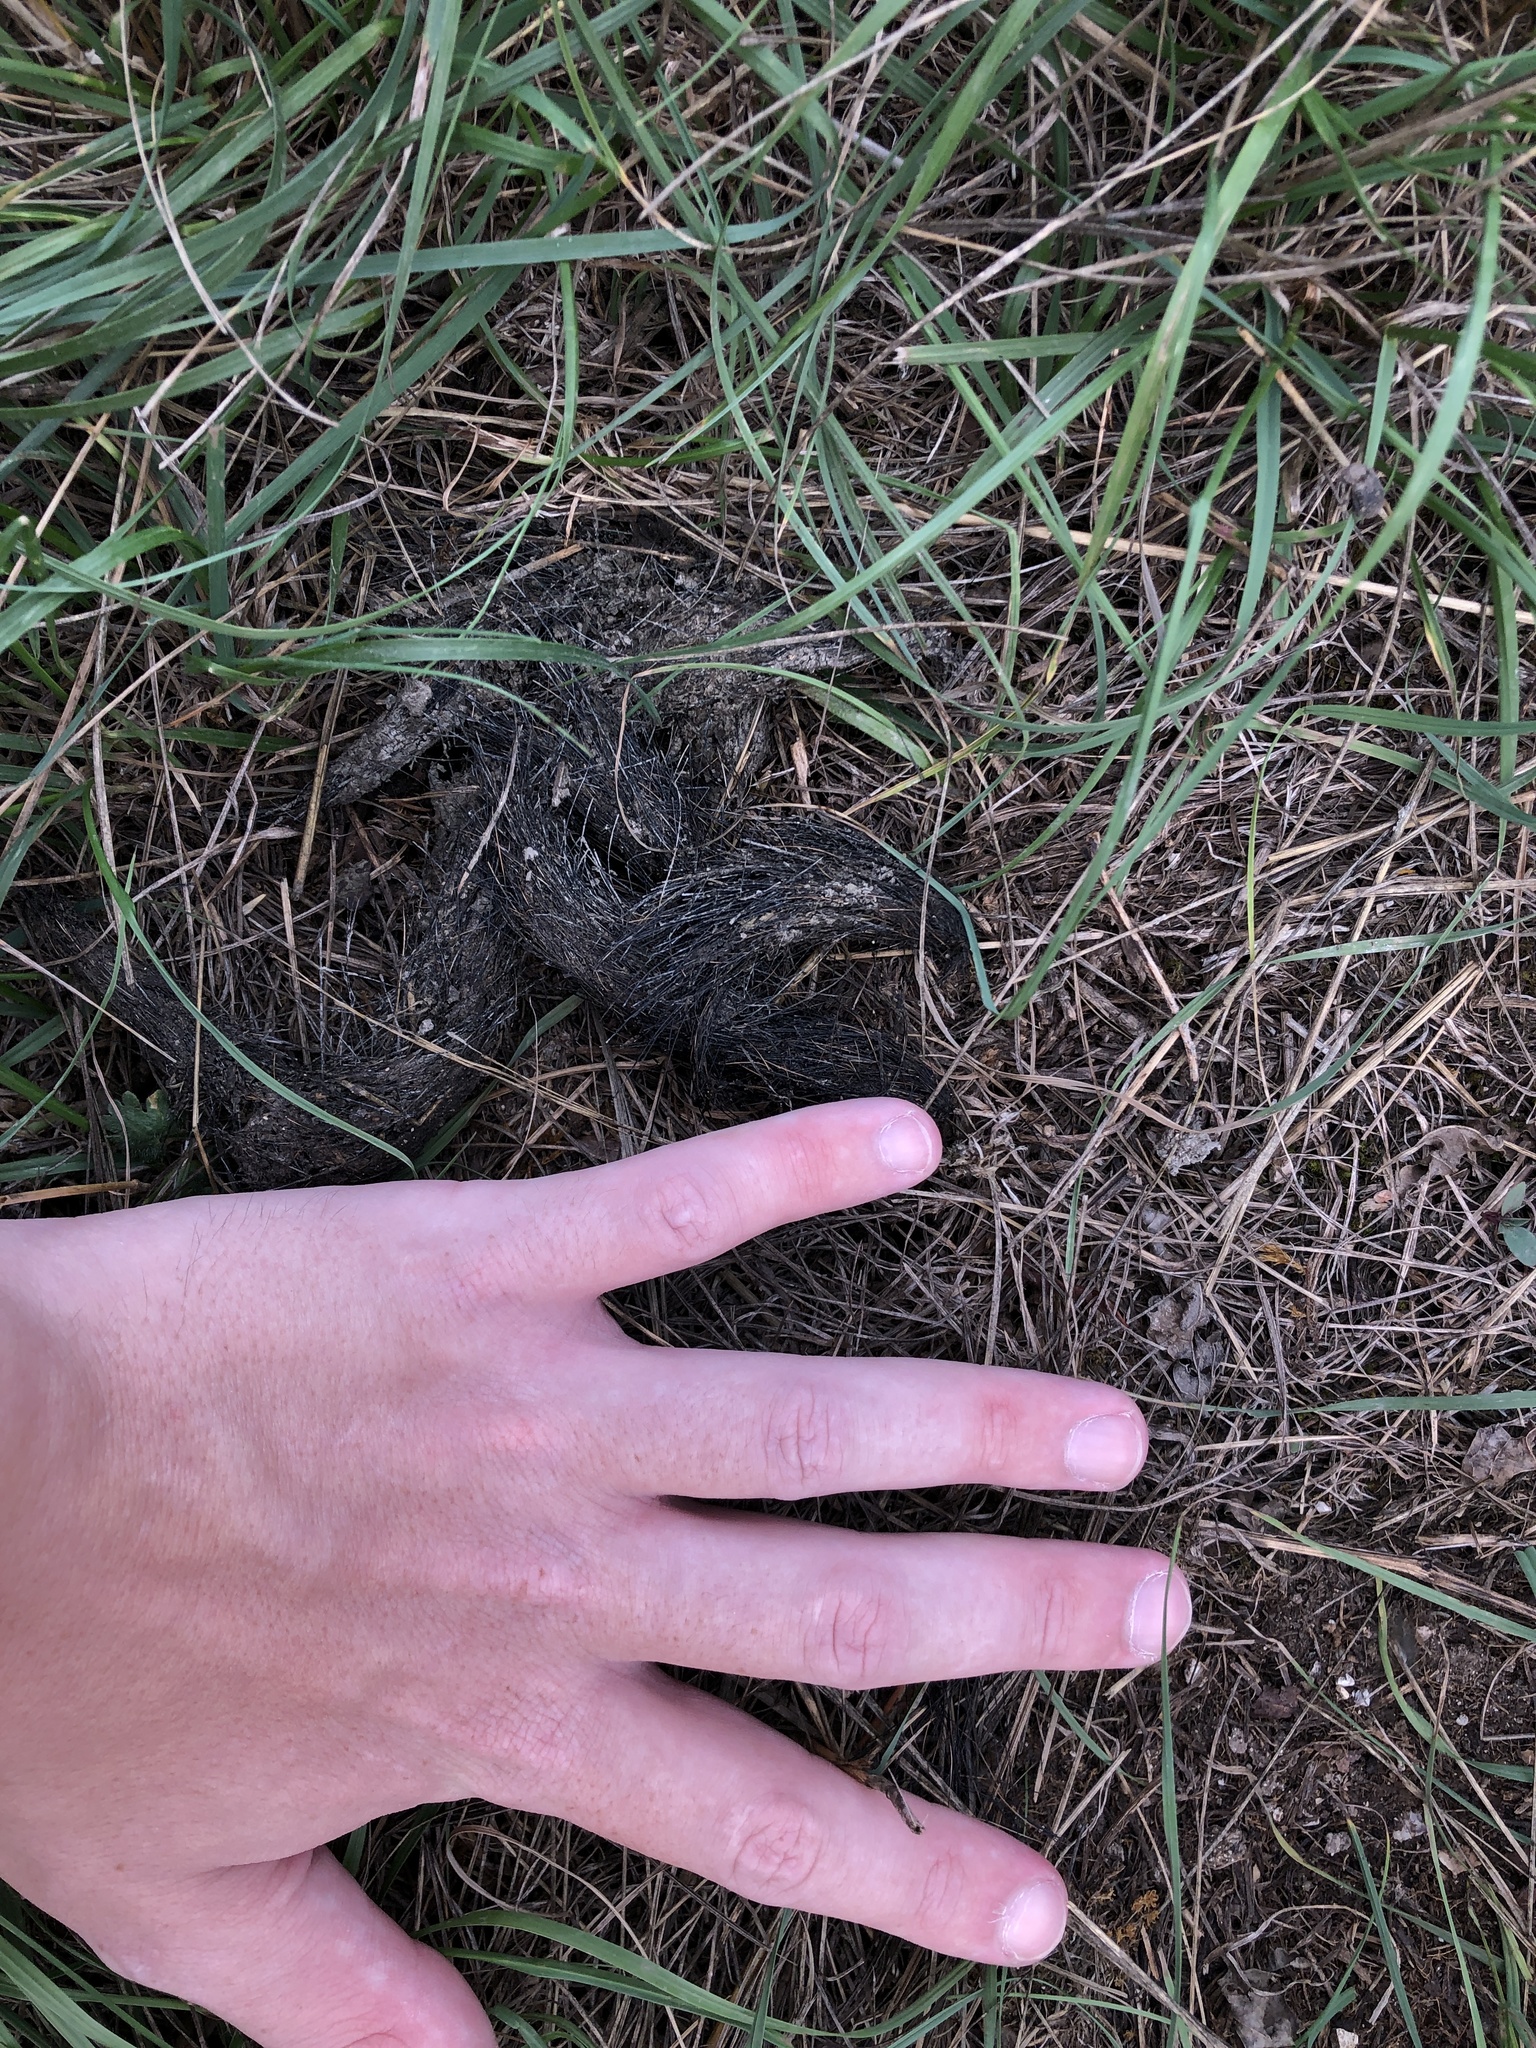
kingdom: Animalia
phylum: Chordata
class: Mammalia
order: Carnivora
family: Canidae
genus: Canis
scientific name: Canis lupus
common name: Gray wolf
